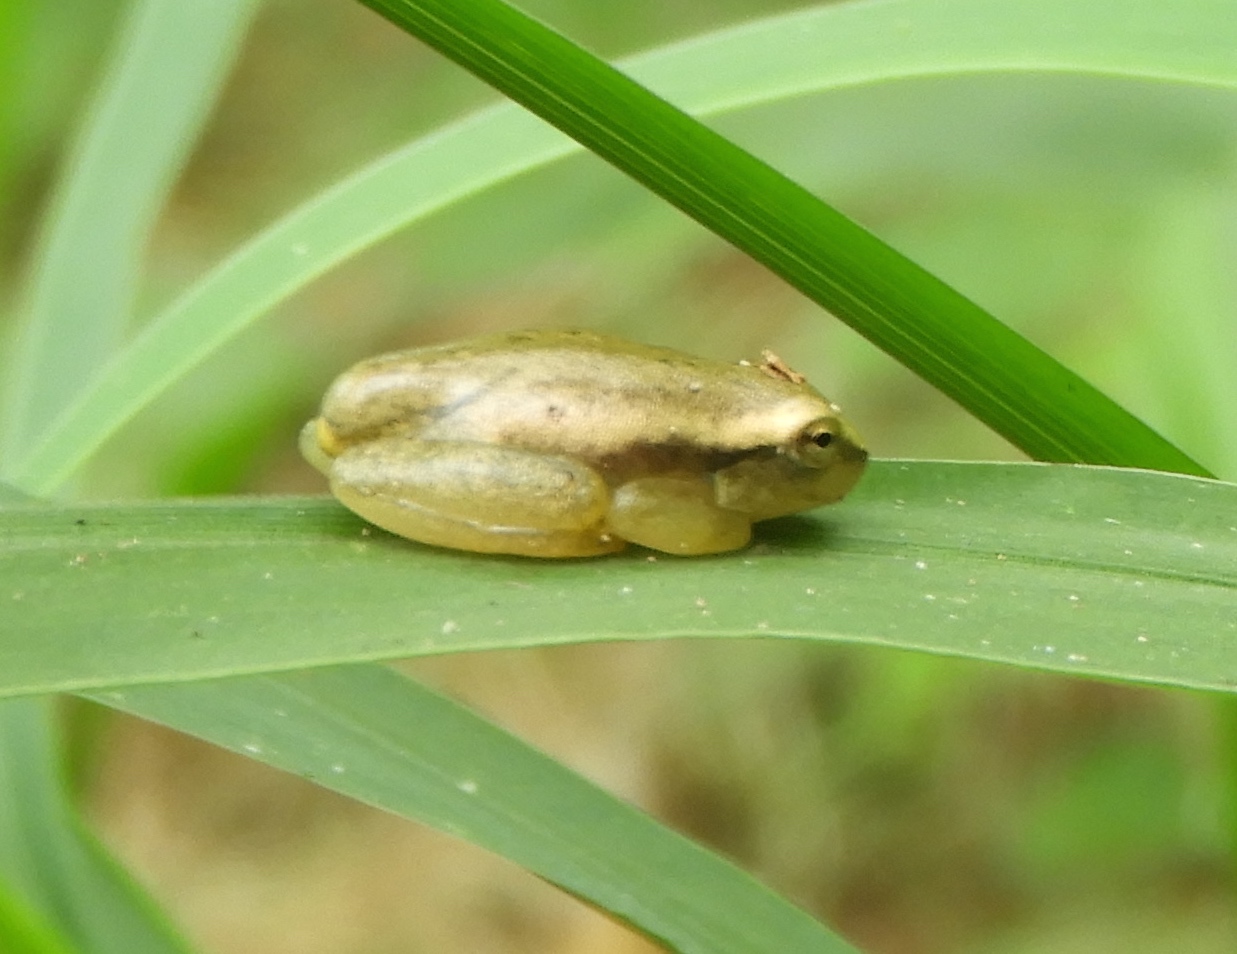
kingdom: Animalia
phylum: Chordata
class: Amphibia
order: Anura
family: Hylidae
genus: Tlalocohyla
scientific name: Tlalocohyla smithii
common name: Dwarf mexican treefrog
